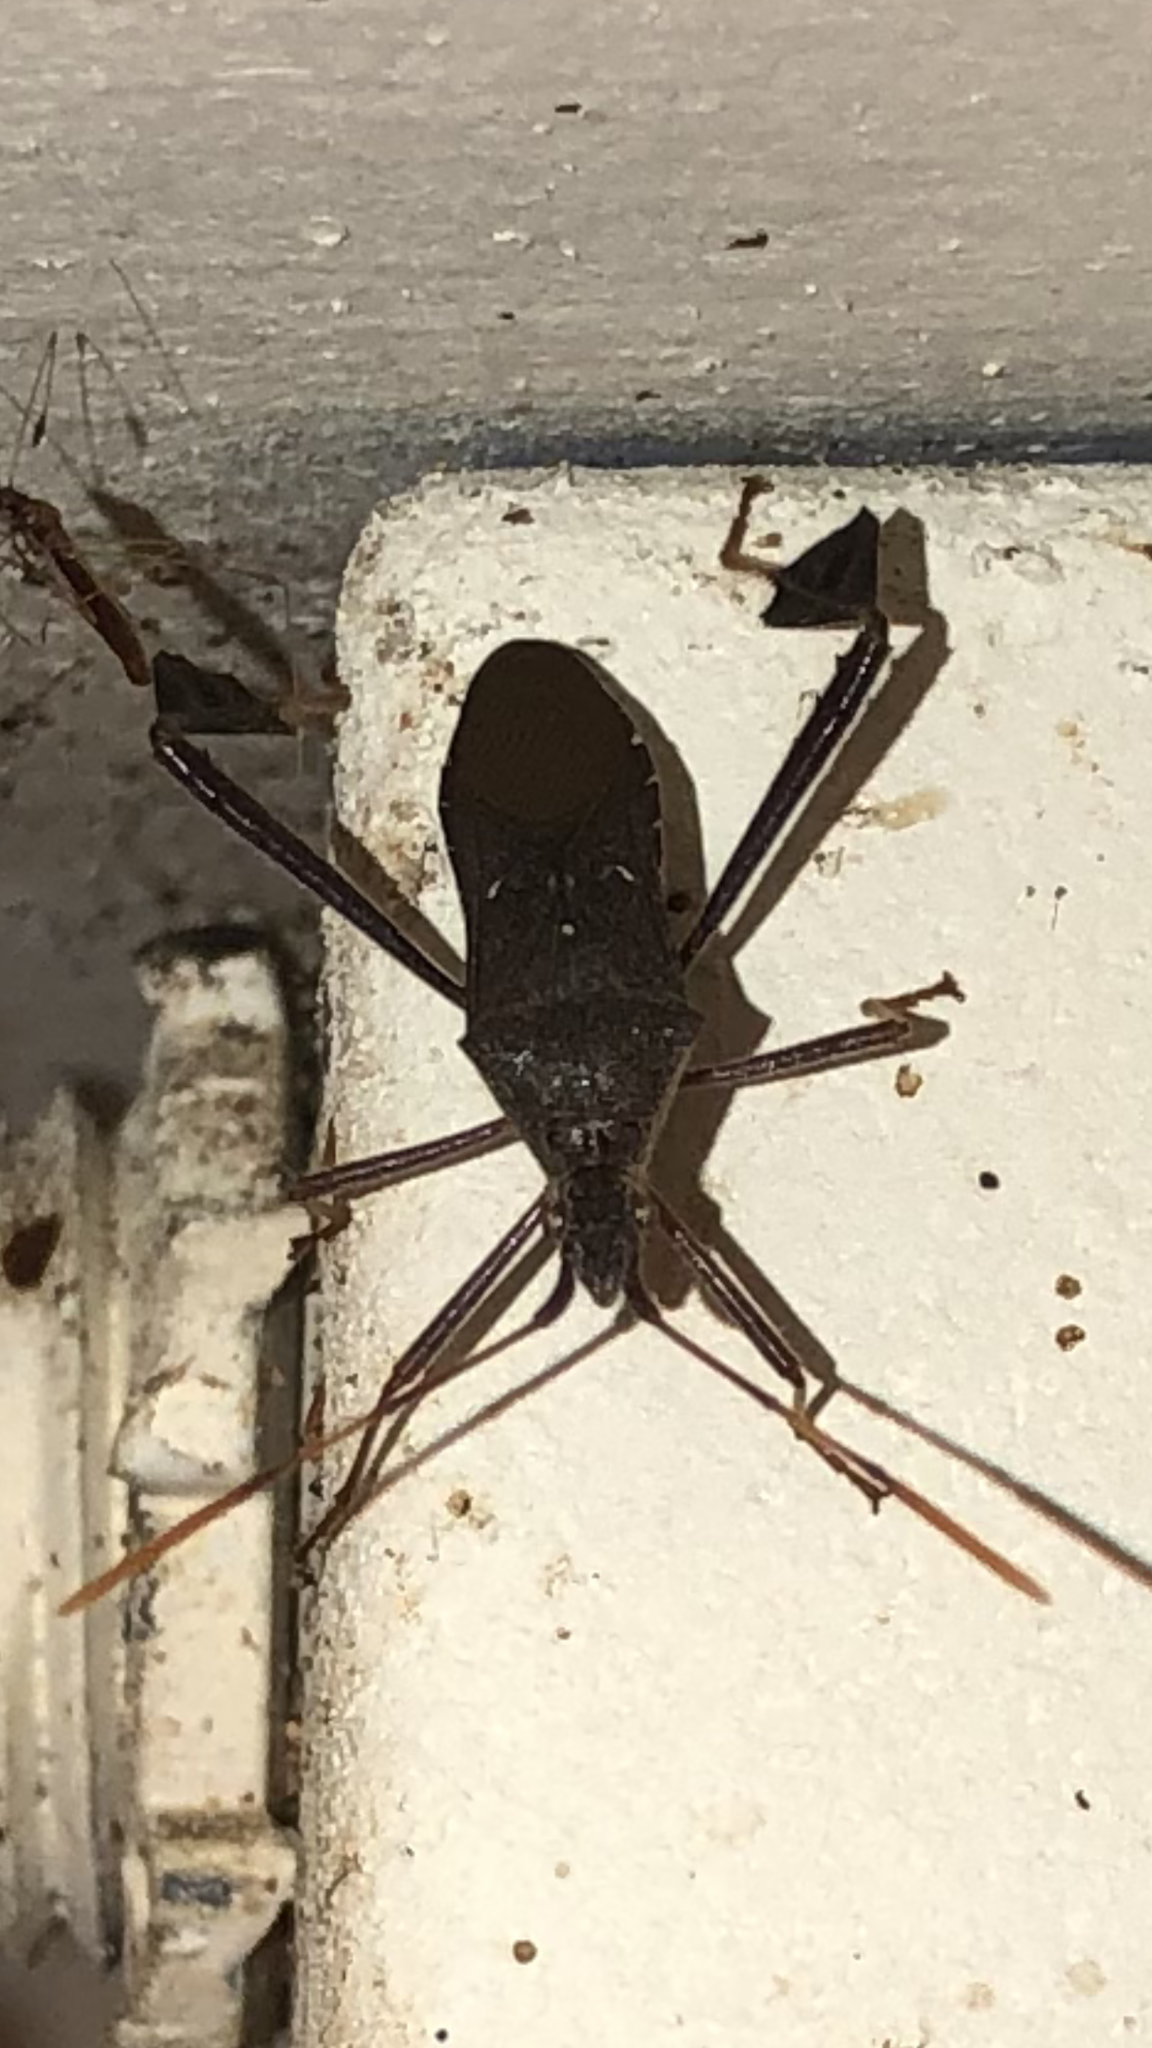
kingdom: Animalia
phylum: Arthropoda
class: Insecta
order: Hemiptera
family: Coreidae
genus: Leptoglossus
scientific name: Leptoglossus oppositus
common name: Northern leaf-footed bug
